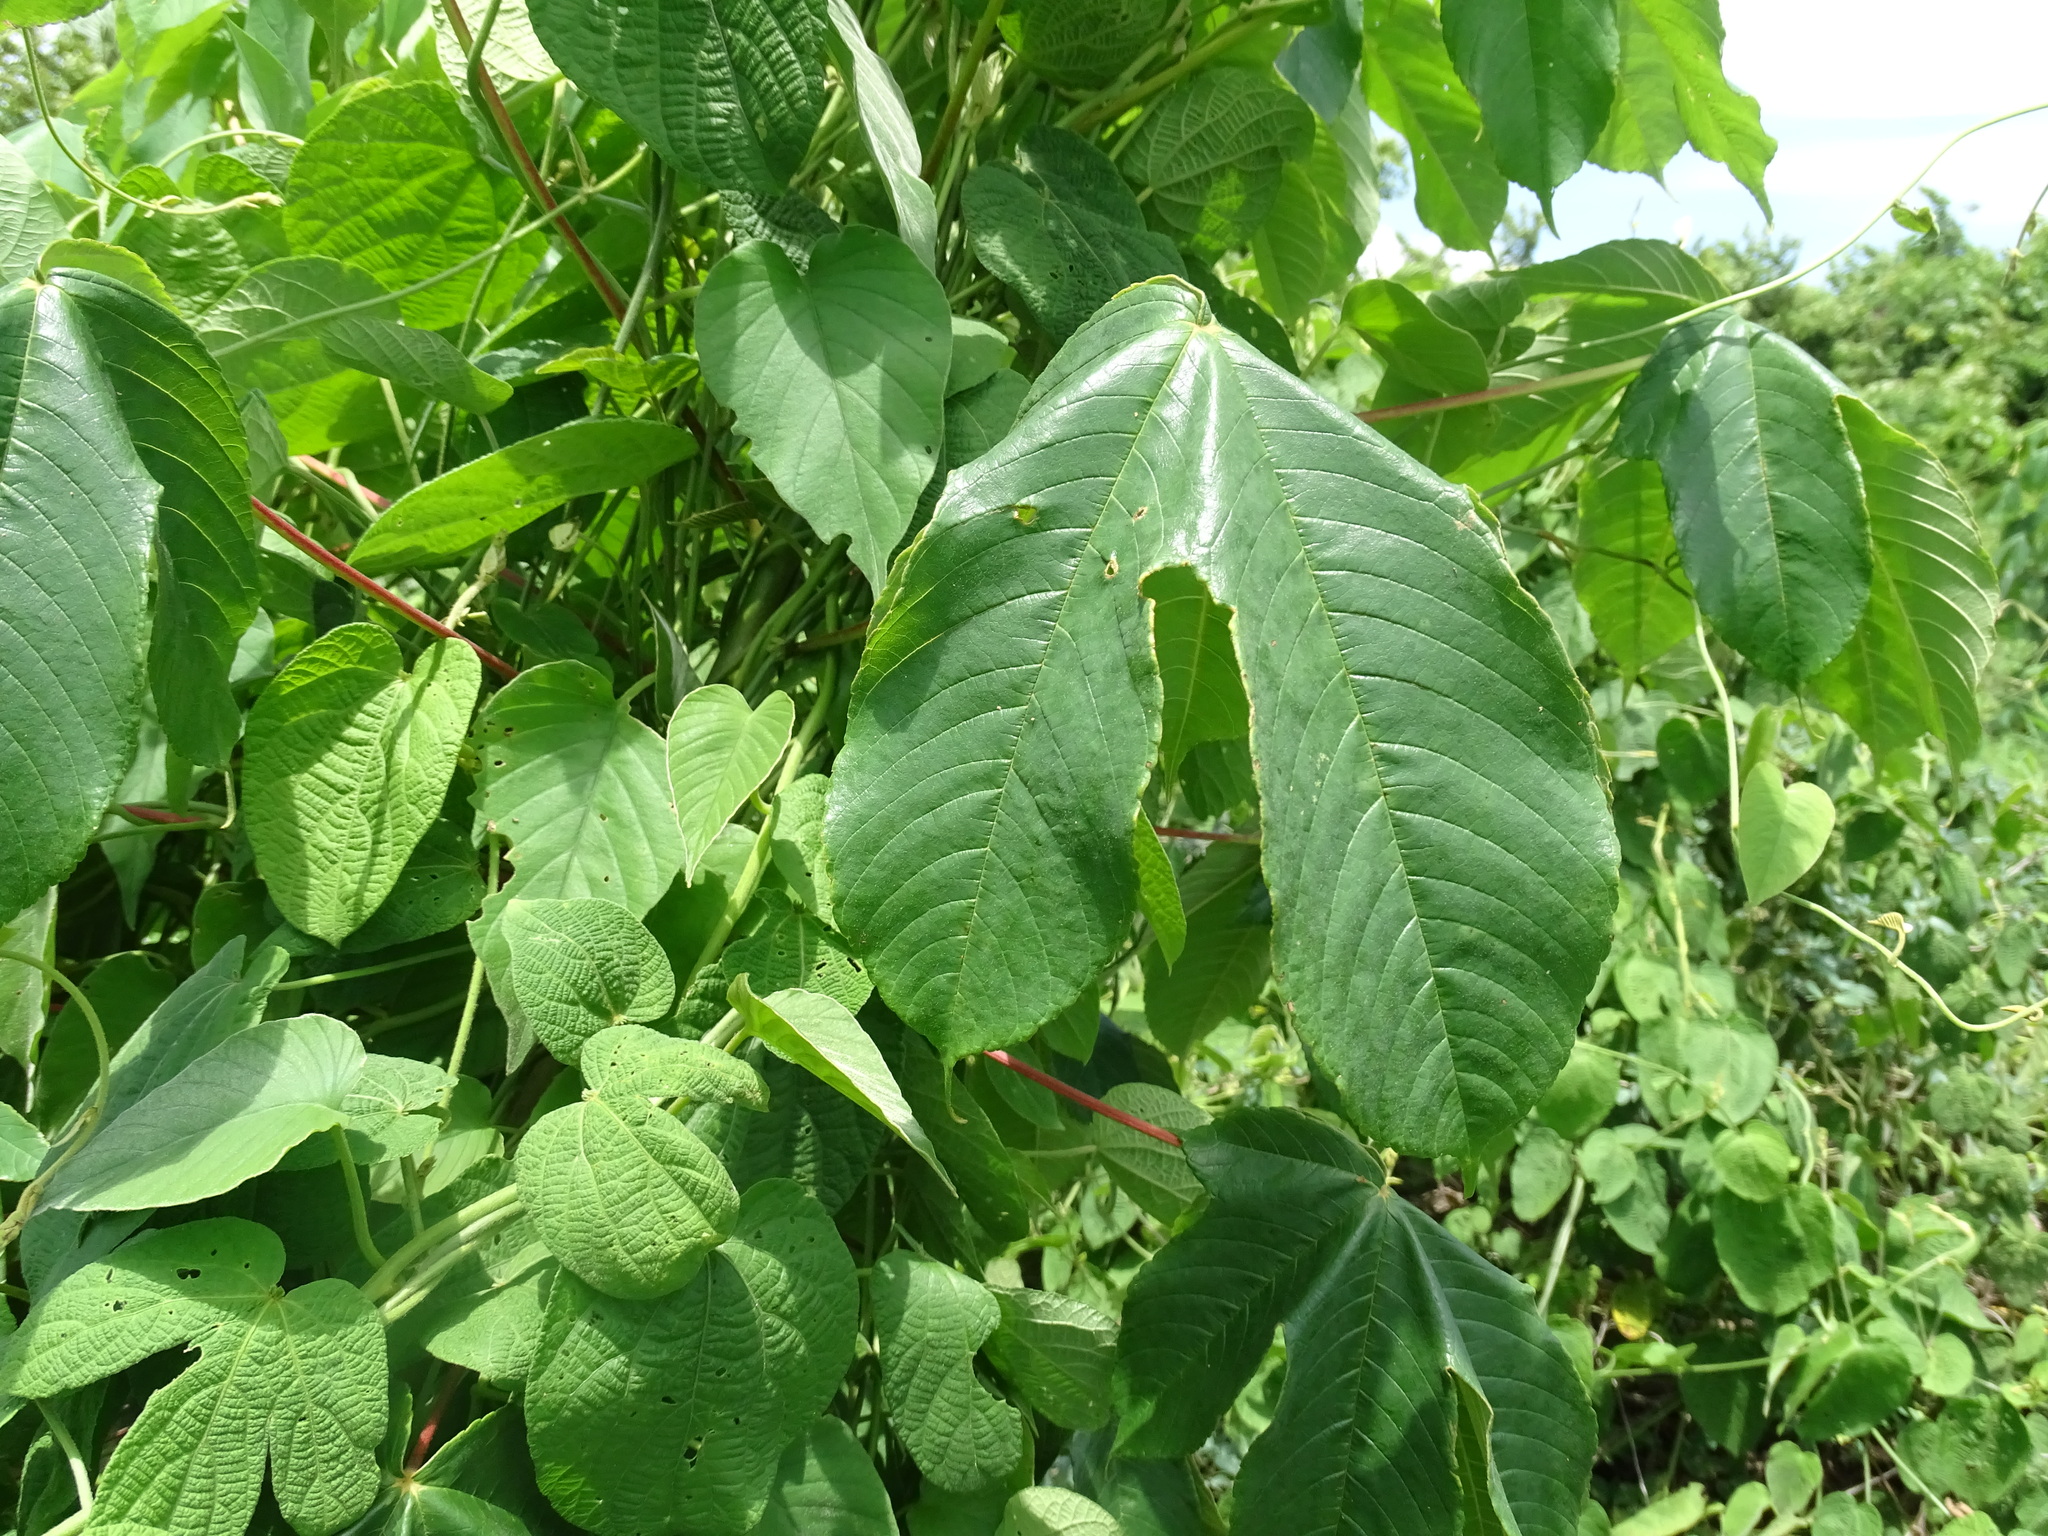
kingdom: Plantae
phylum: Tracheophyta
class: Magnoliopsida
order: Malvales
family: Cochlospermaceae
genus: Cochlospermum
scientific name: Cochlospermum vitifolium
